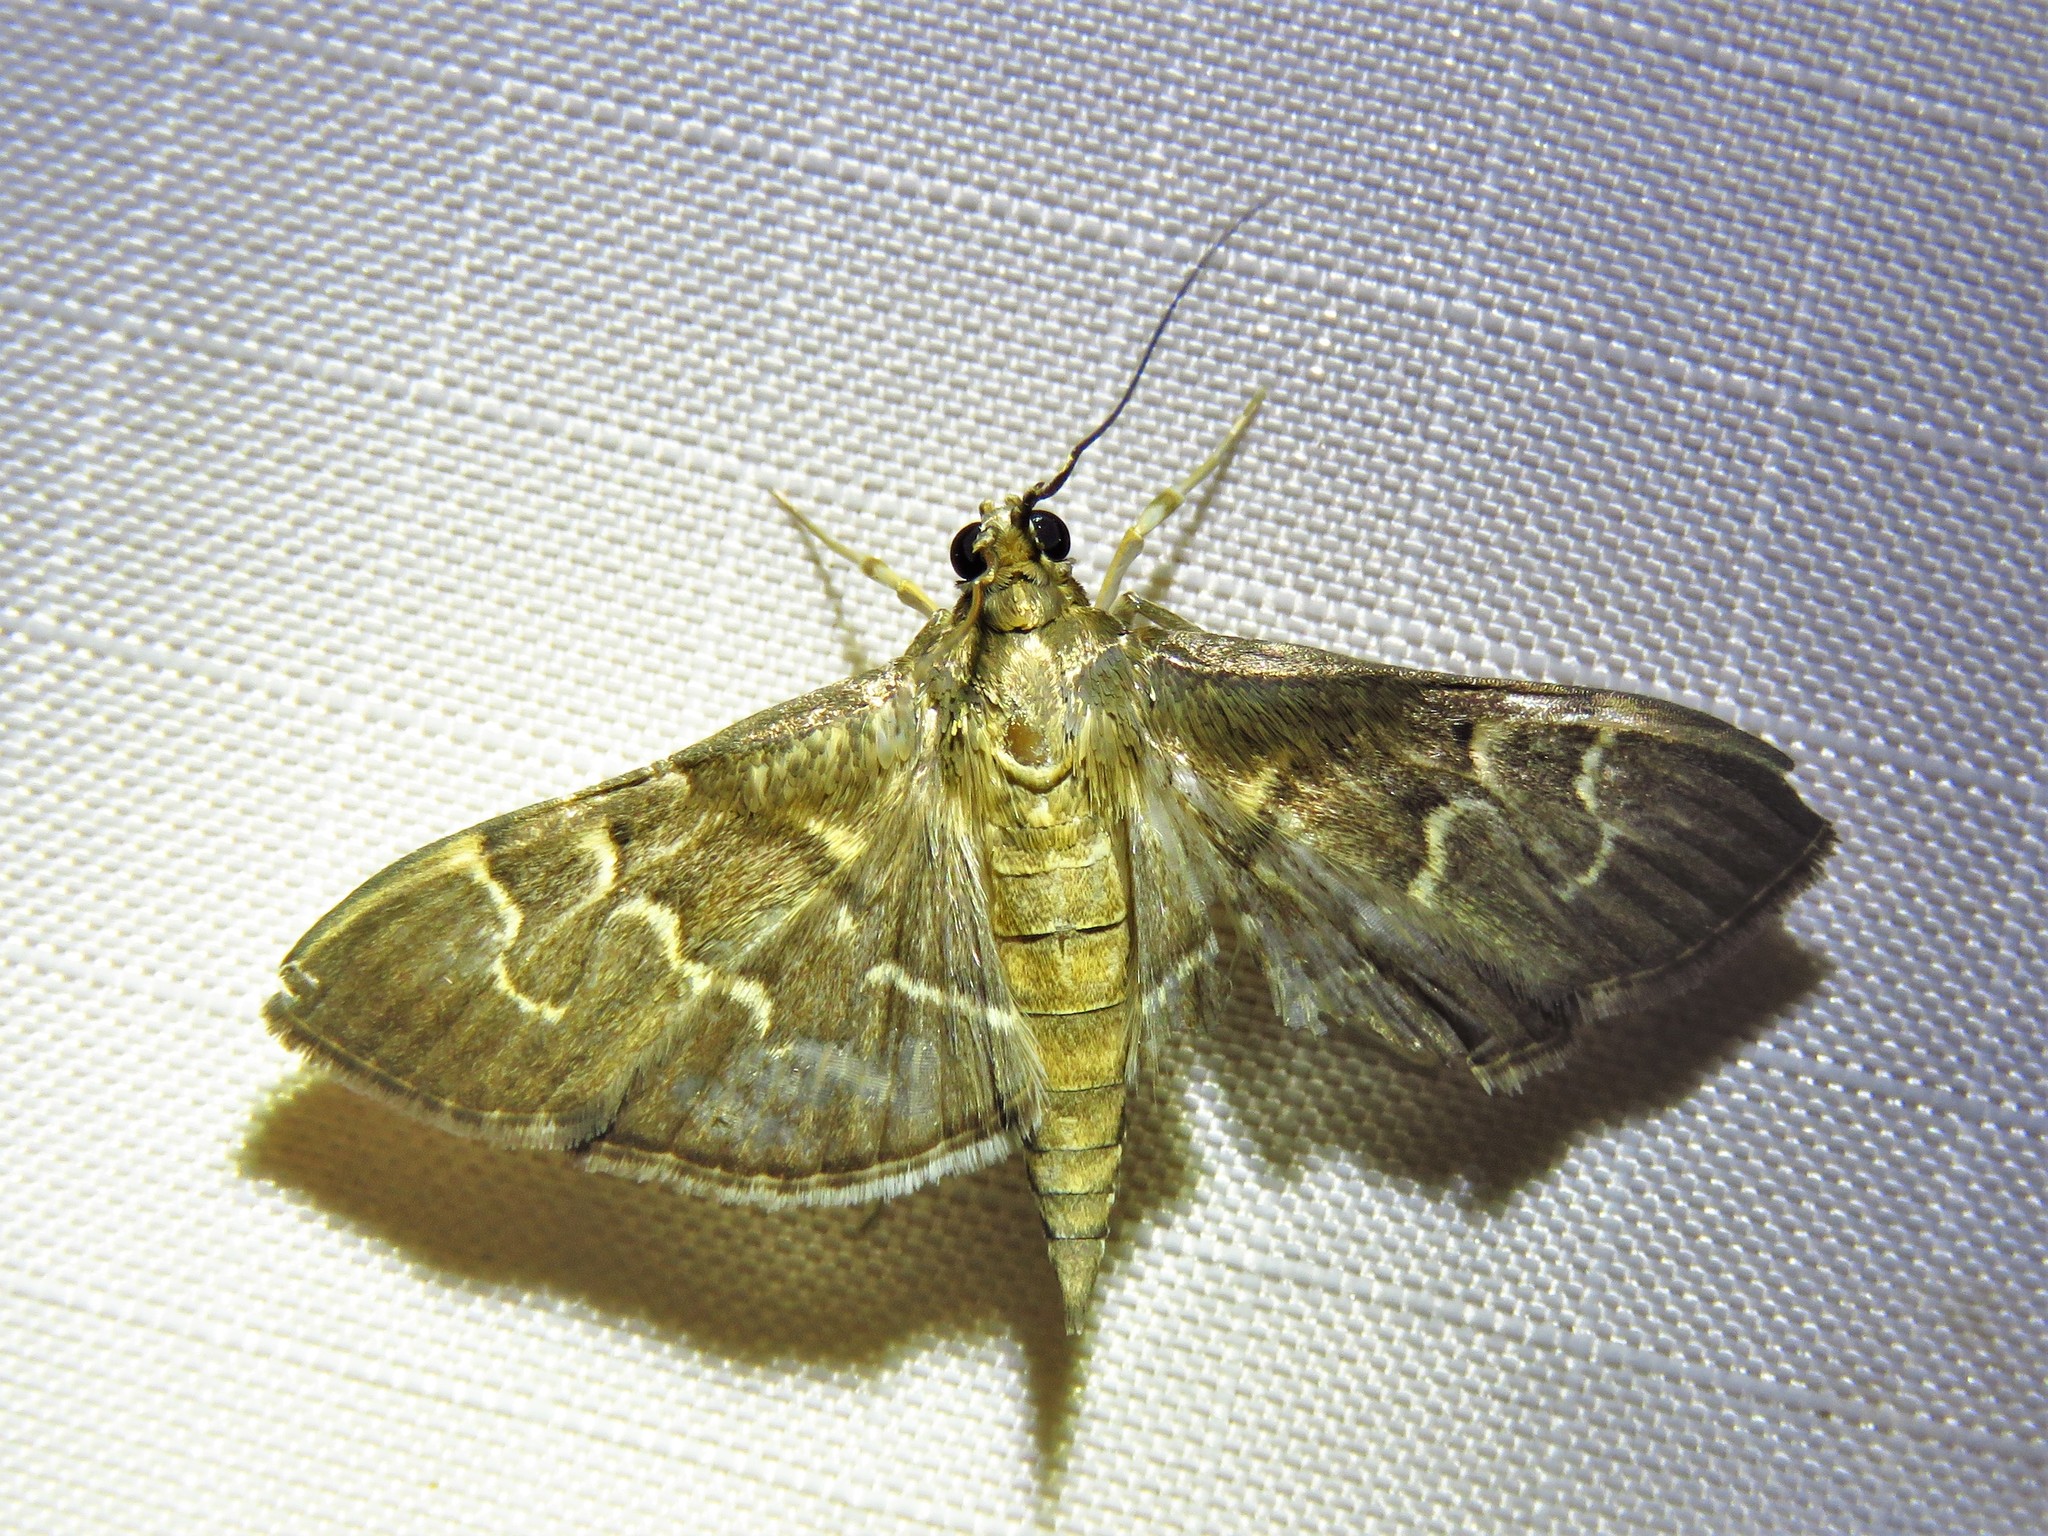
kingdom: Animalia
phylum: Arthropoda
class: Insecta
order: Lepidoptera
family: Crambidae
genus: Pilocrocis
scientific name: Pilocrocis ramentalis
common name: Scraped pilocrocis
